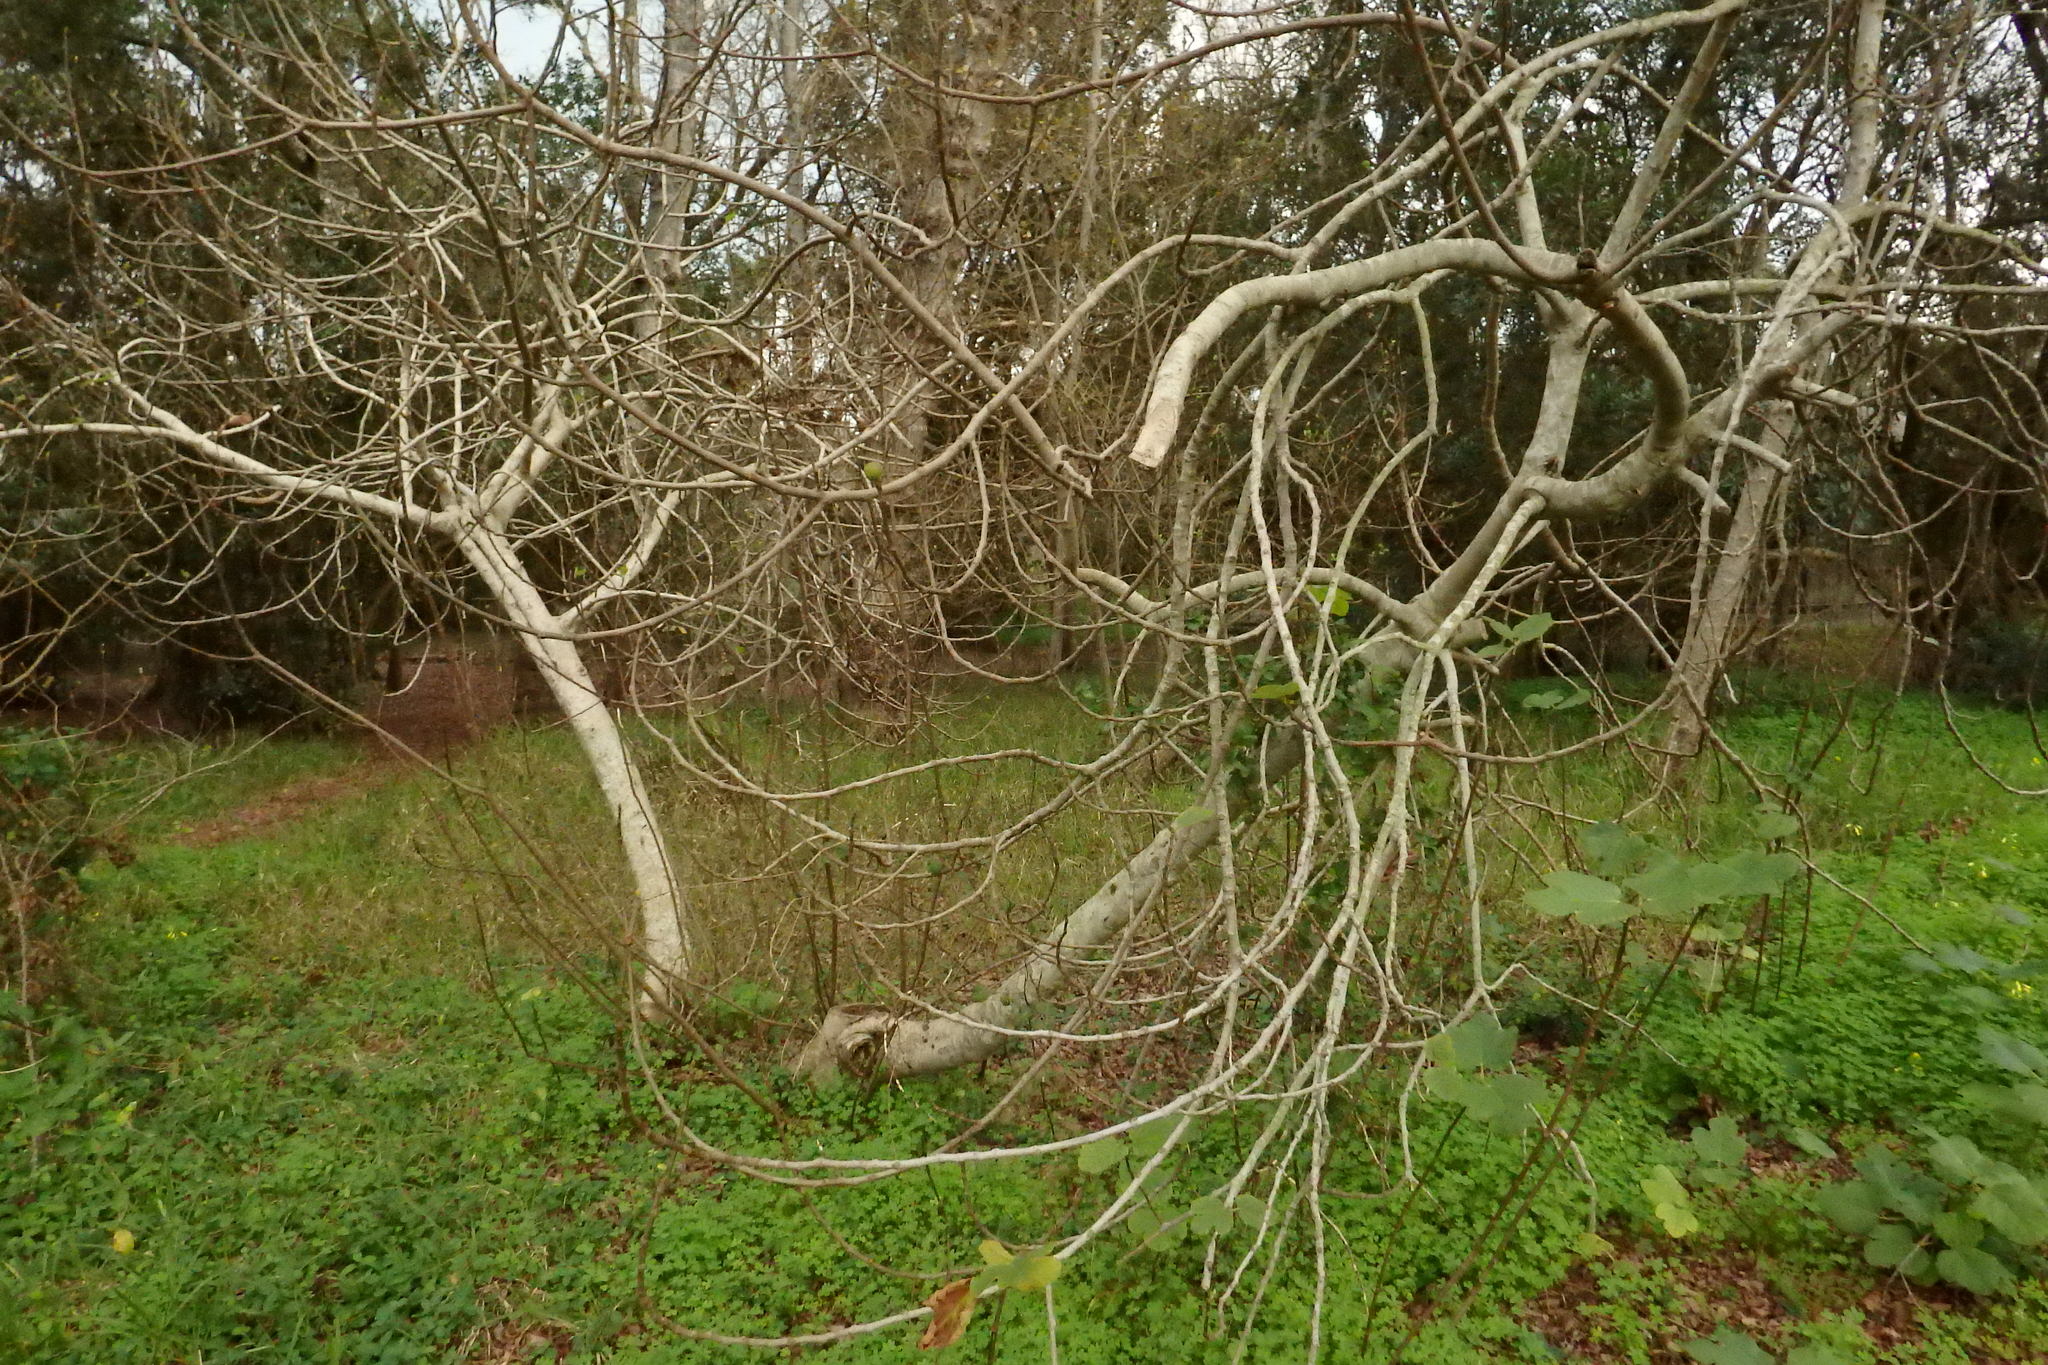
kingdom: Plantae
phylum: Tracheophyta
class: Magnoliopsida
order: Rosales
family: Moraceae
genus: Ficus
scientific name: Ficus carica
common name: Fig
